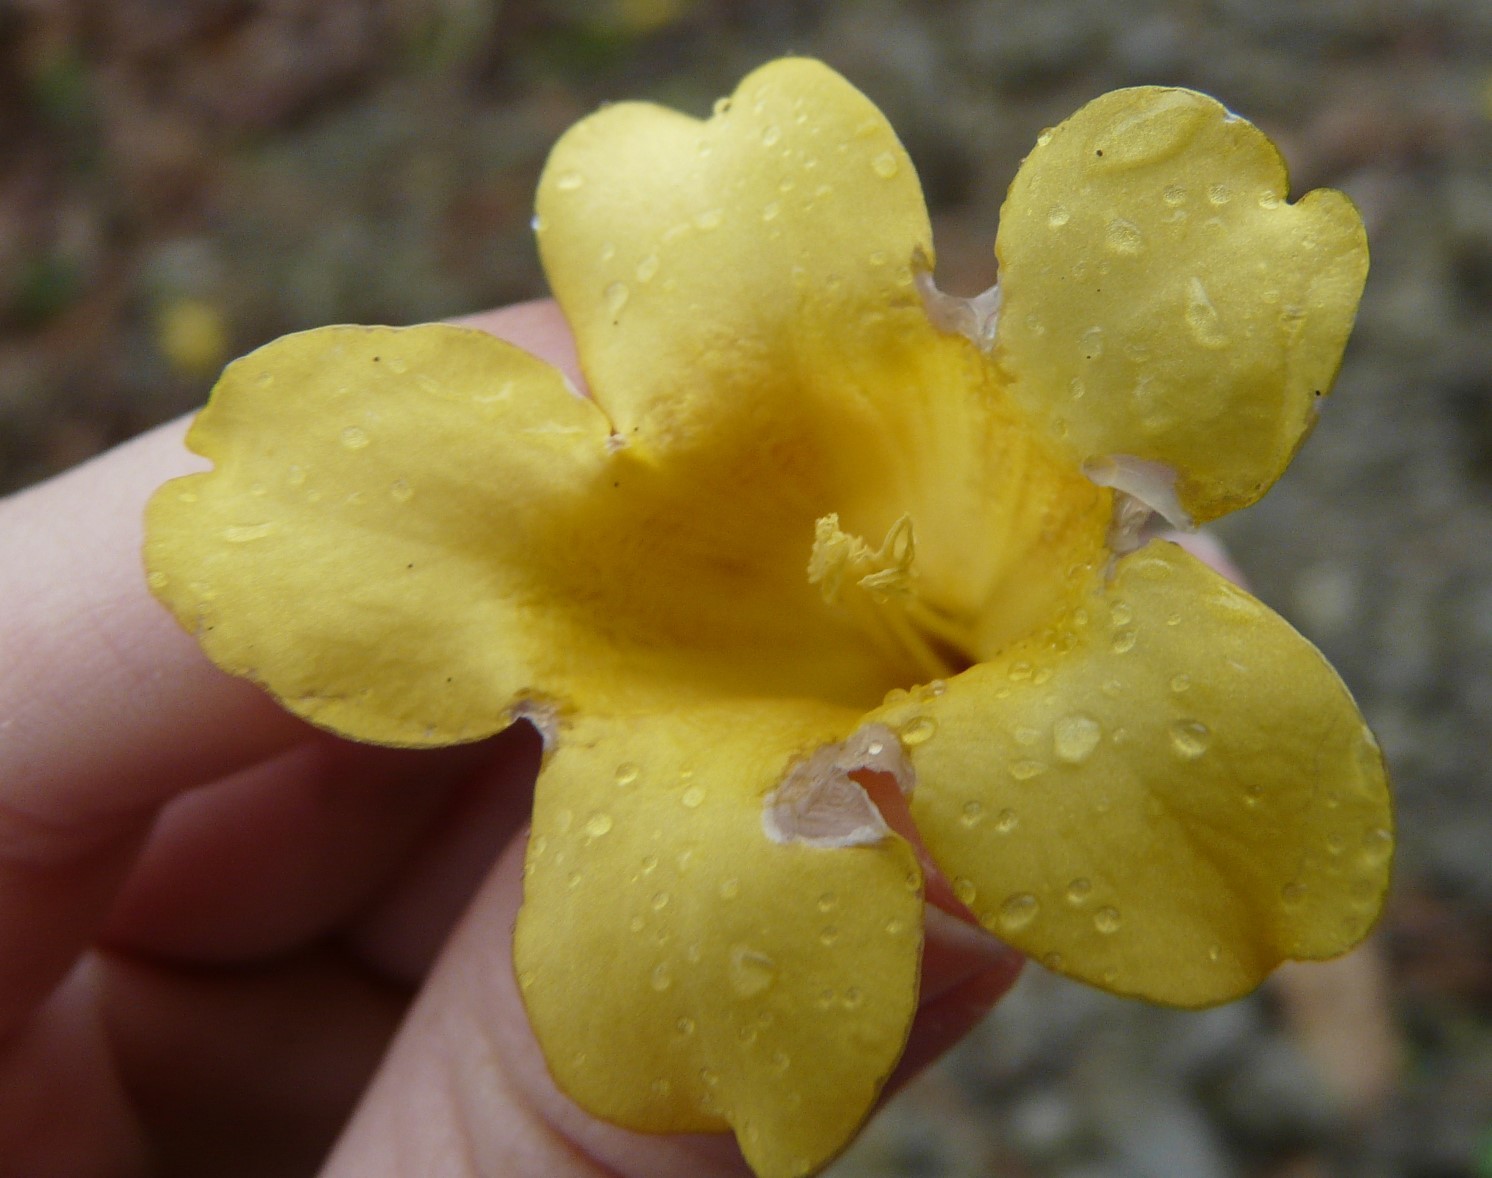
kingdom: Plantae
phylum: Tracheophyta
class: Magnoliopsida
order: Gentianales
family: Gelsemiaceae
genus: Gelsemium
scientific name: Gelsemium sempervirens
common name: Carolina-jasmine
